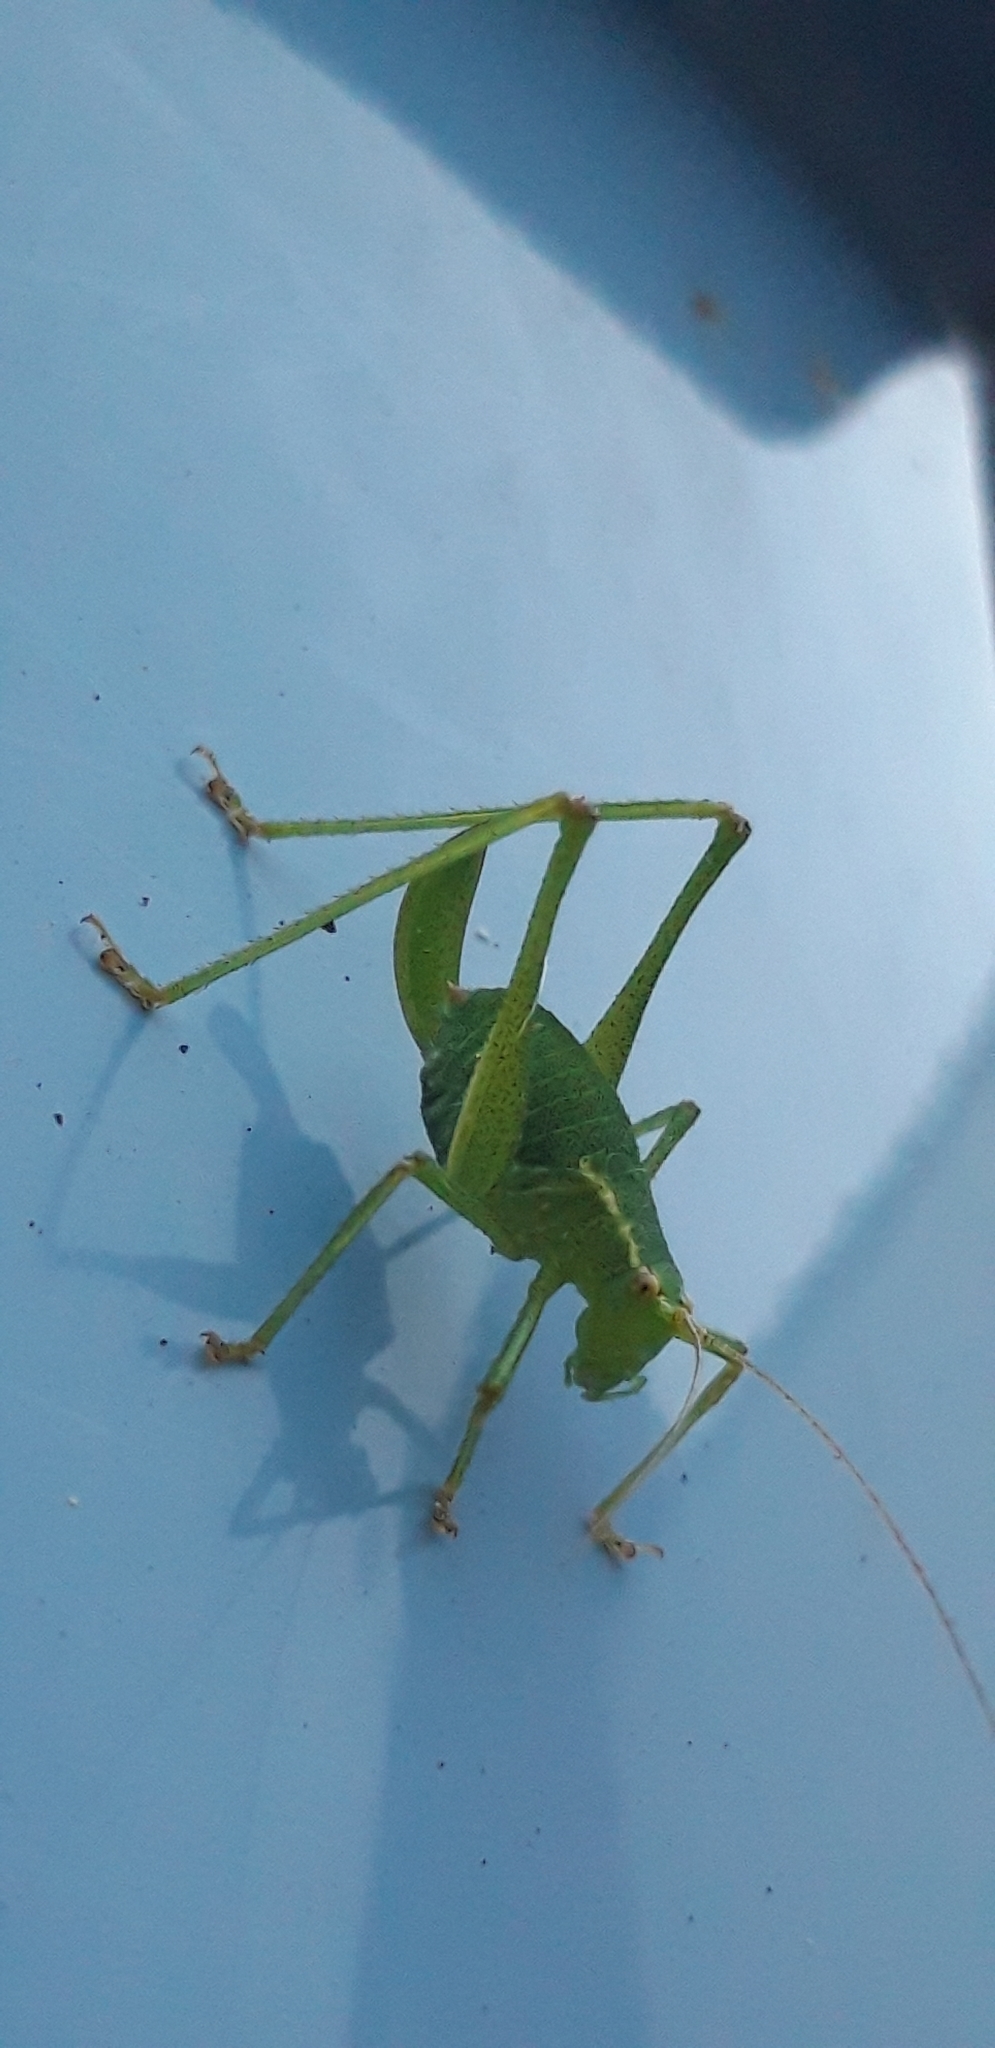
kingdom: Animalia
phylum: Arthropoda
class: Insecta
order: Orthoptera
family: Tettigoniidae
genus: Leptophyes
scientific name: Leptophyes punctatissima
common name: Speckled bush-cricket
